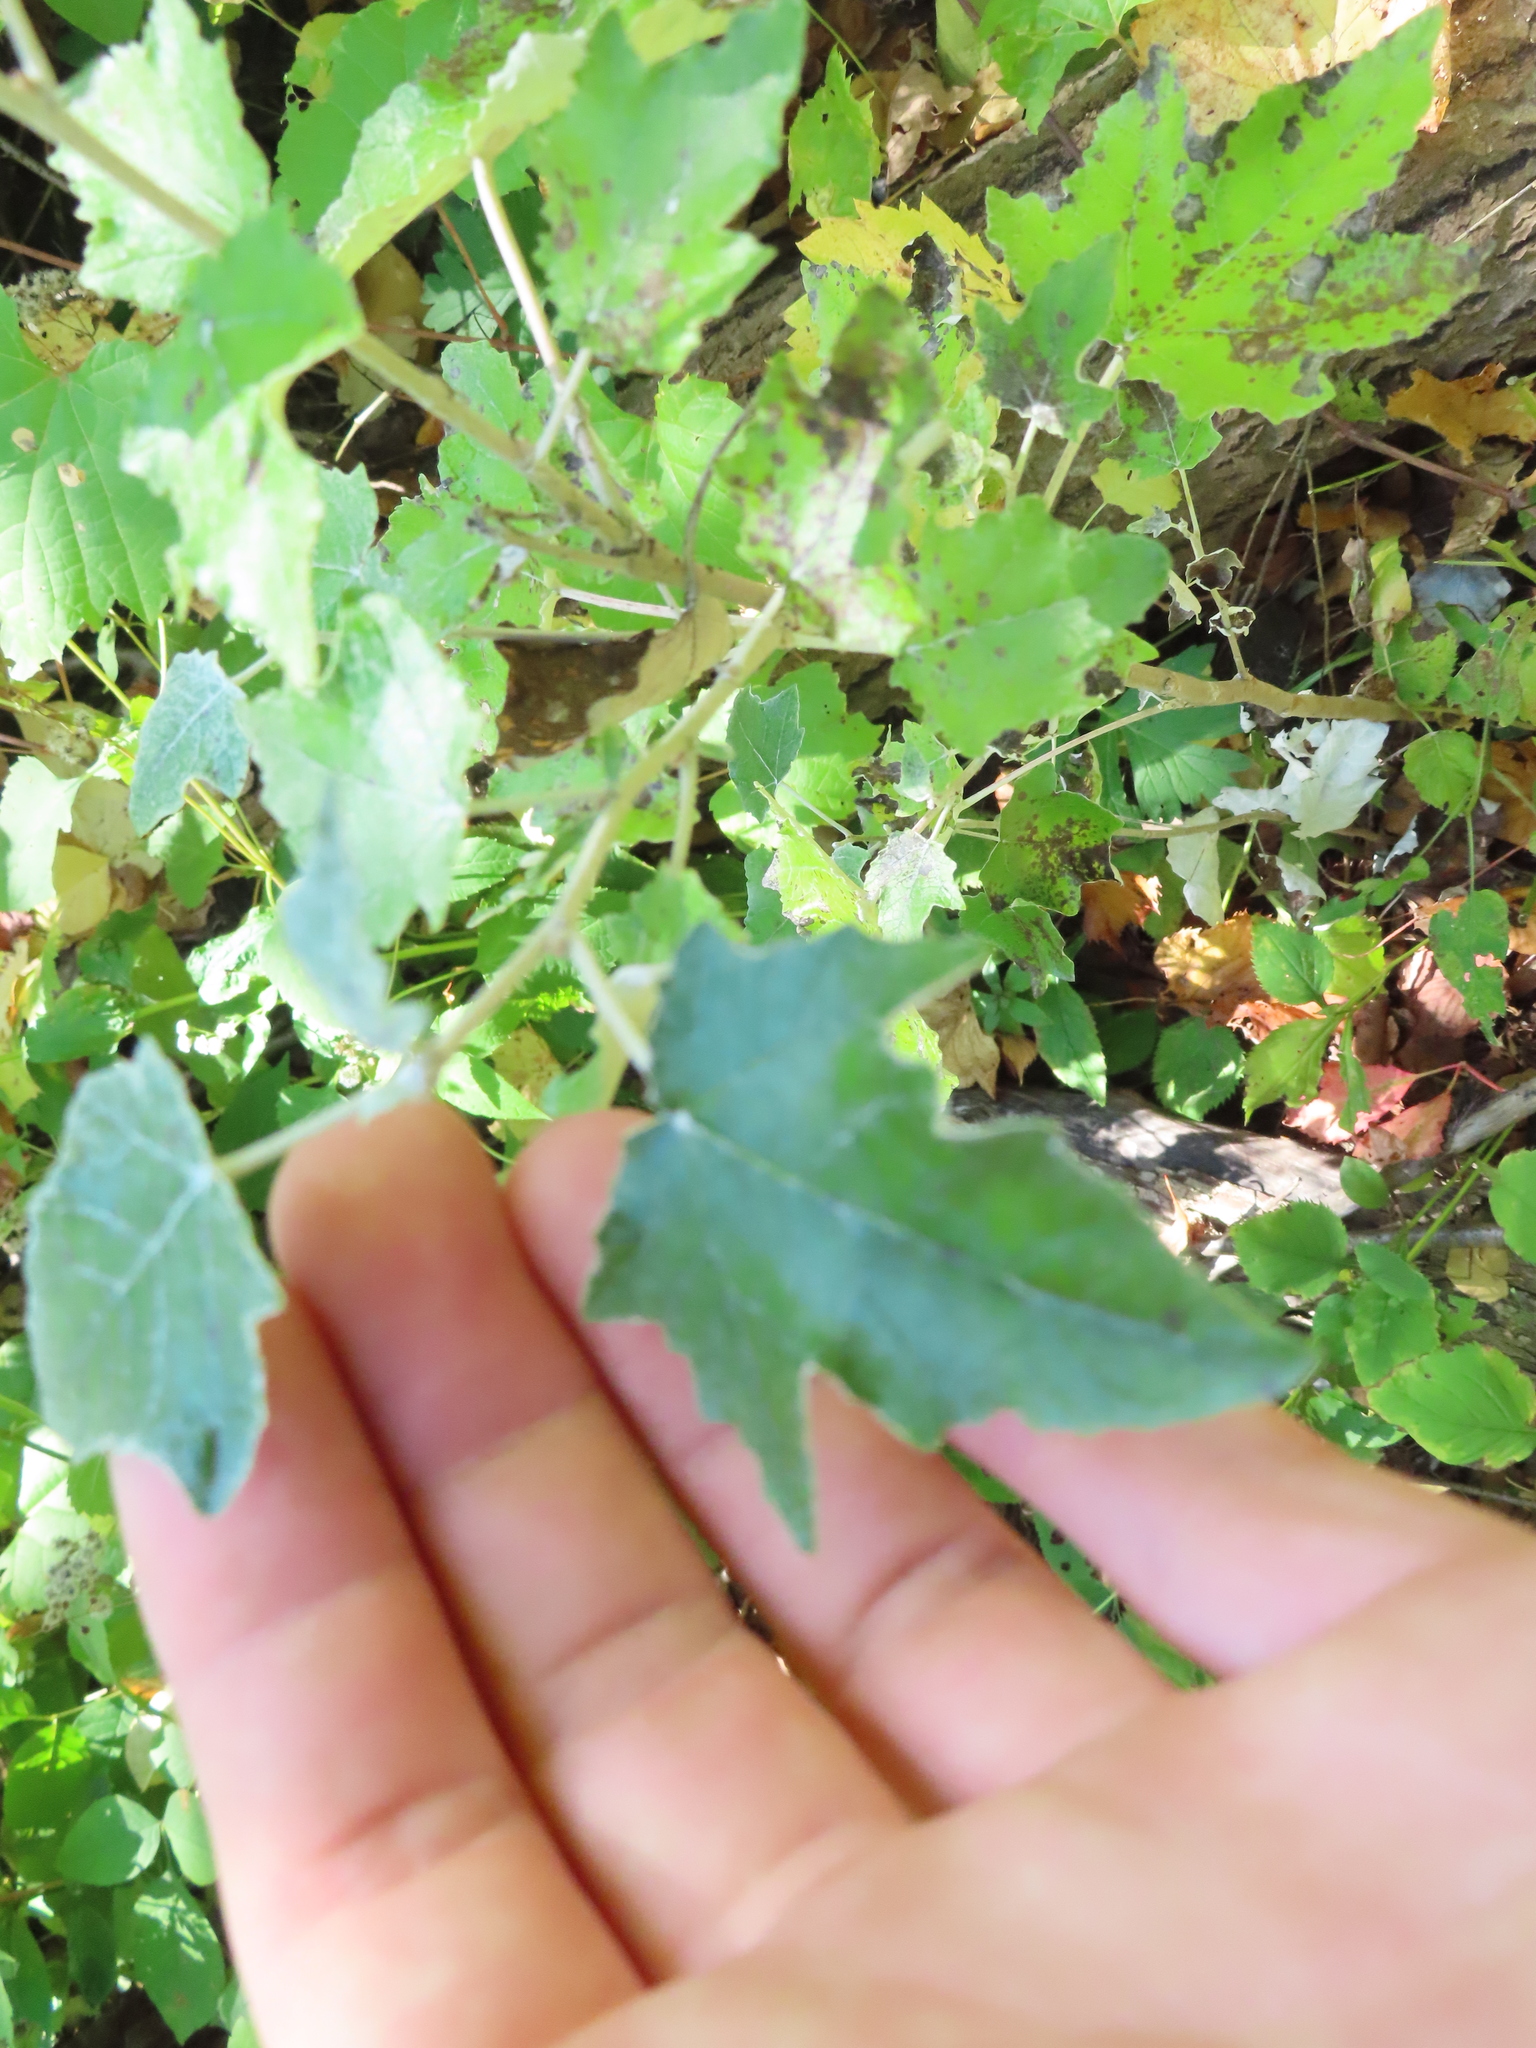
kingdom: Plantae
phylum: Tracheophyta
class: Magnoliopsida
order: Malpighiales
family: Salicaceae
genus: Populus
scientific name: Populus alba
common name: White poplar
